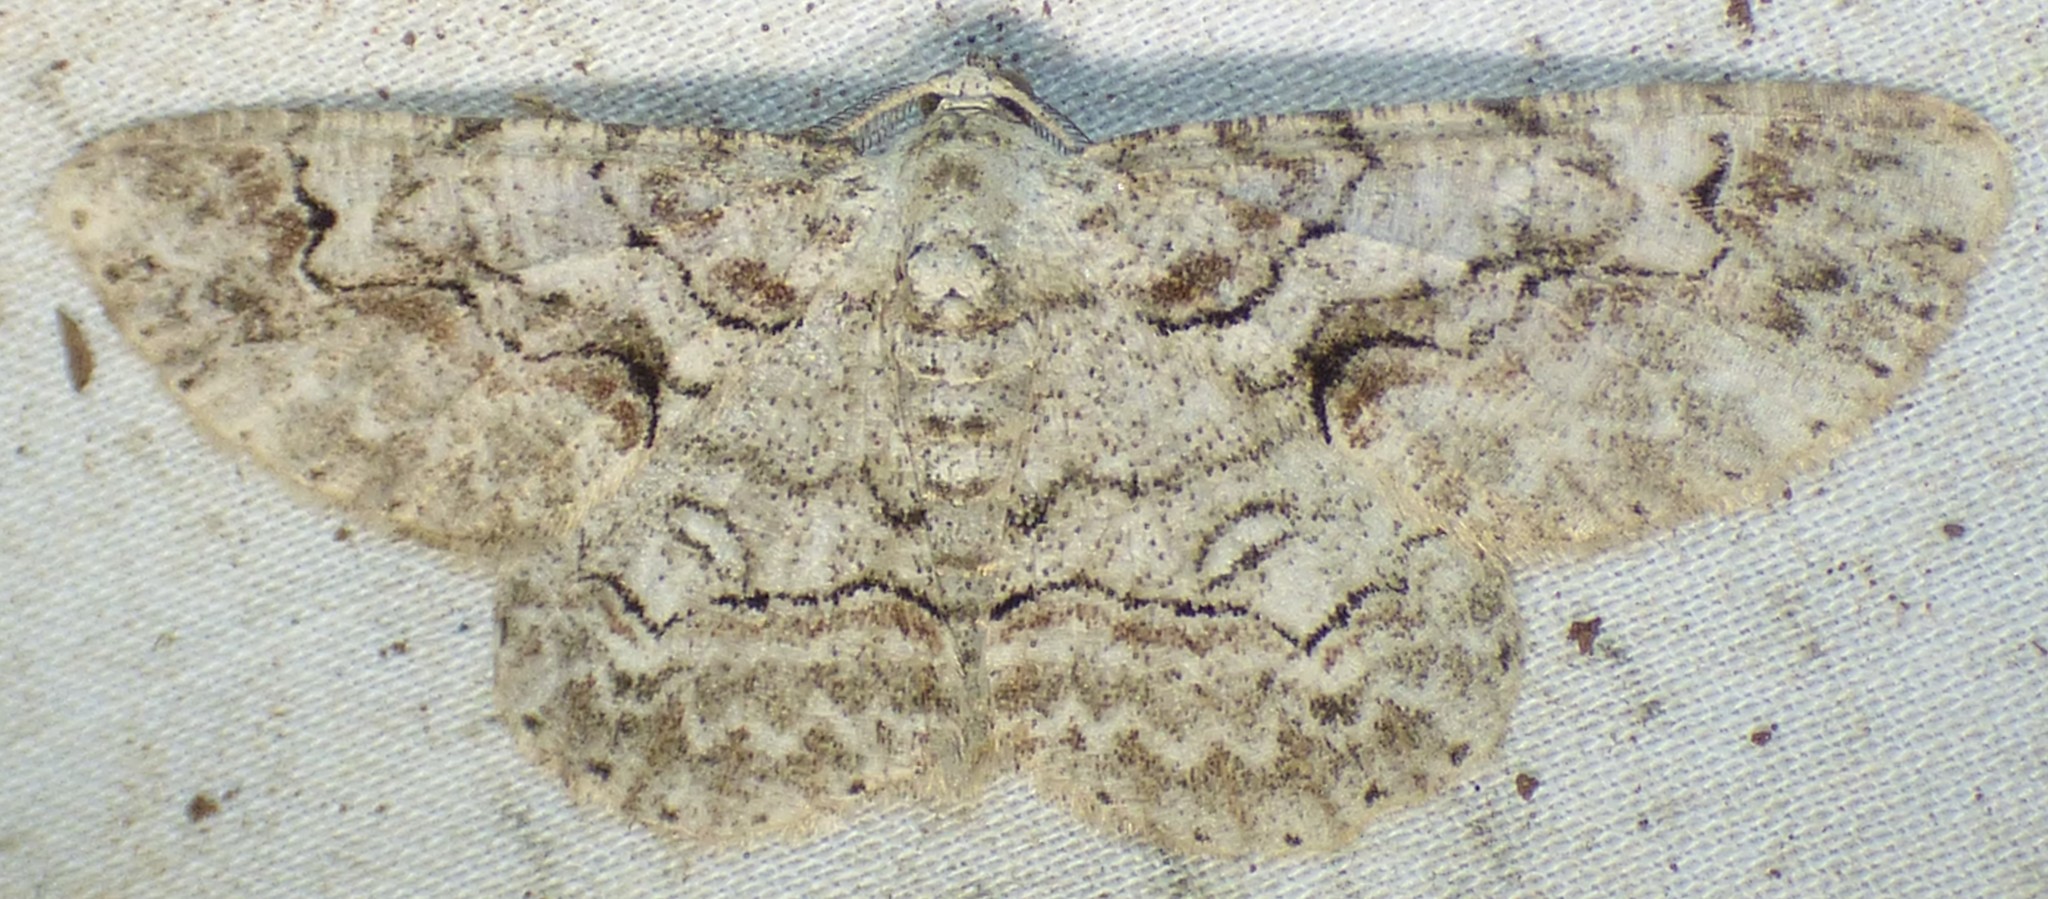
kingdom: Animalia
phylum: Arthropoda
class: Insecta
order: Lepidoptera
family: Geometridae
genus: Iridopsis
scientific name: Iridopsis defectaria
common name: Brown-shaded gray
